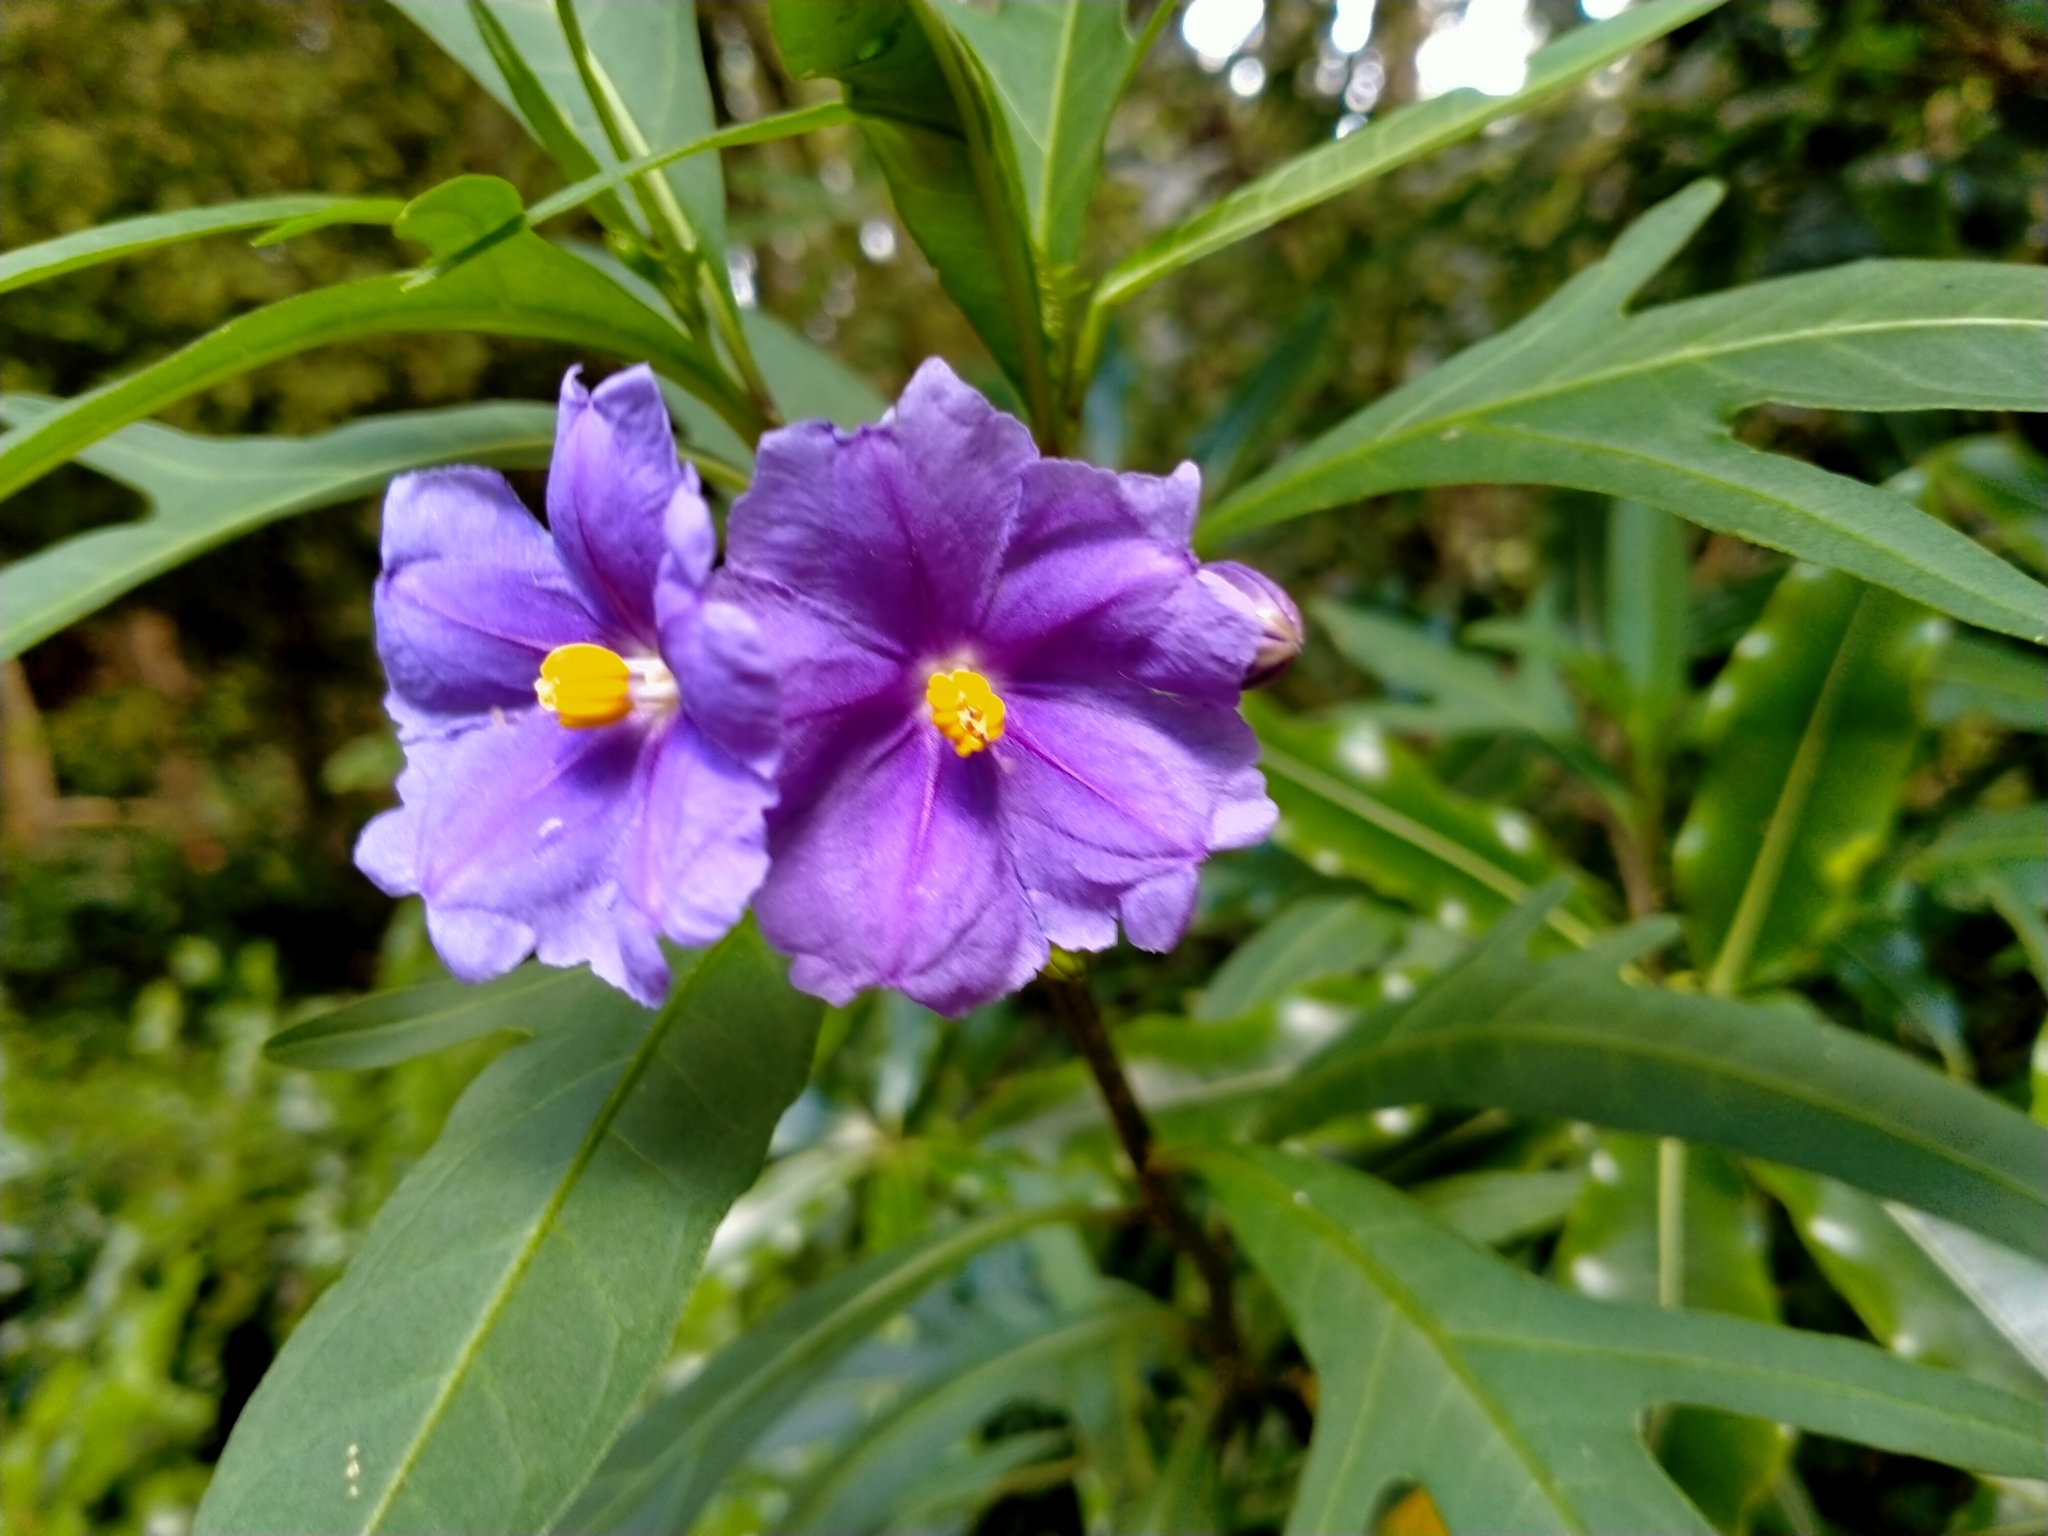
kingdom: Plantae
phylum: Tracheophyta
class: Magnoliopsida
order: Solanales
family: Solanaceae
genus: Solanum
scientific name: Solanum laciniatum
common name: Kangaroo-apple
